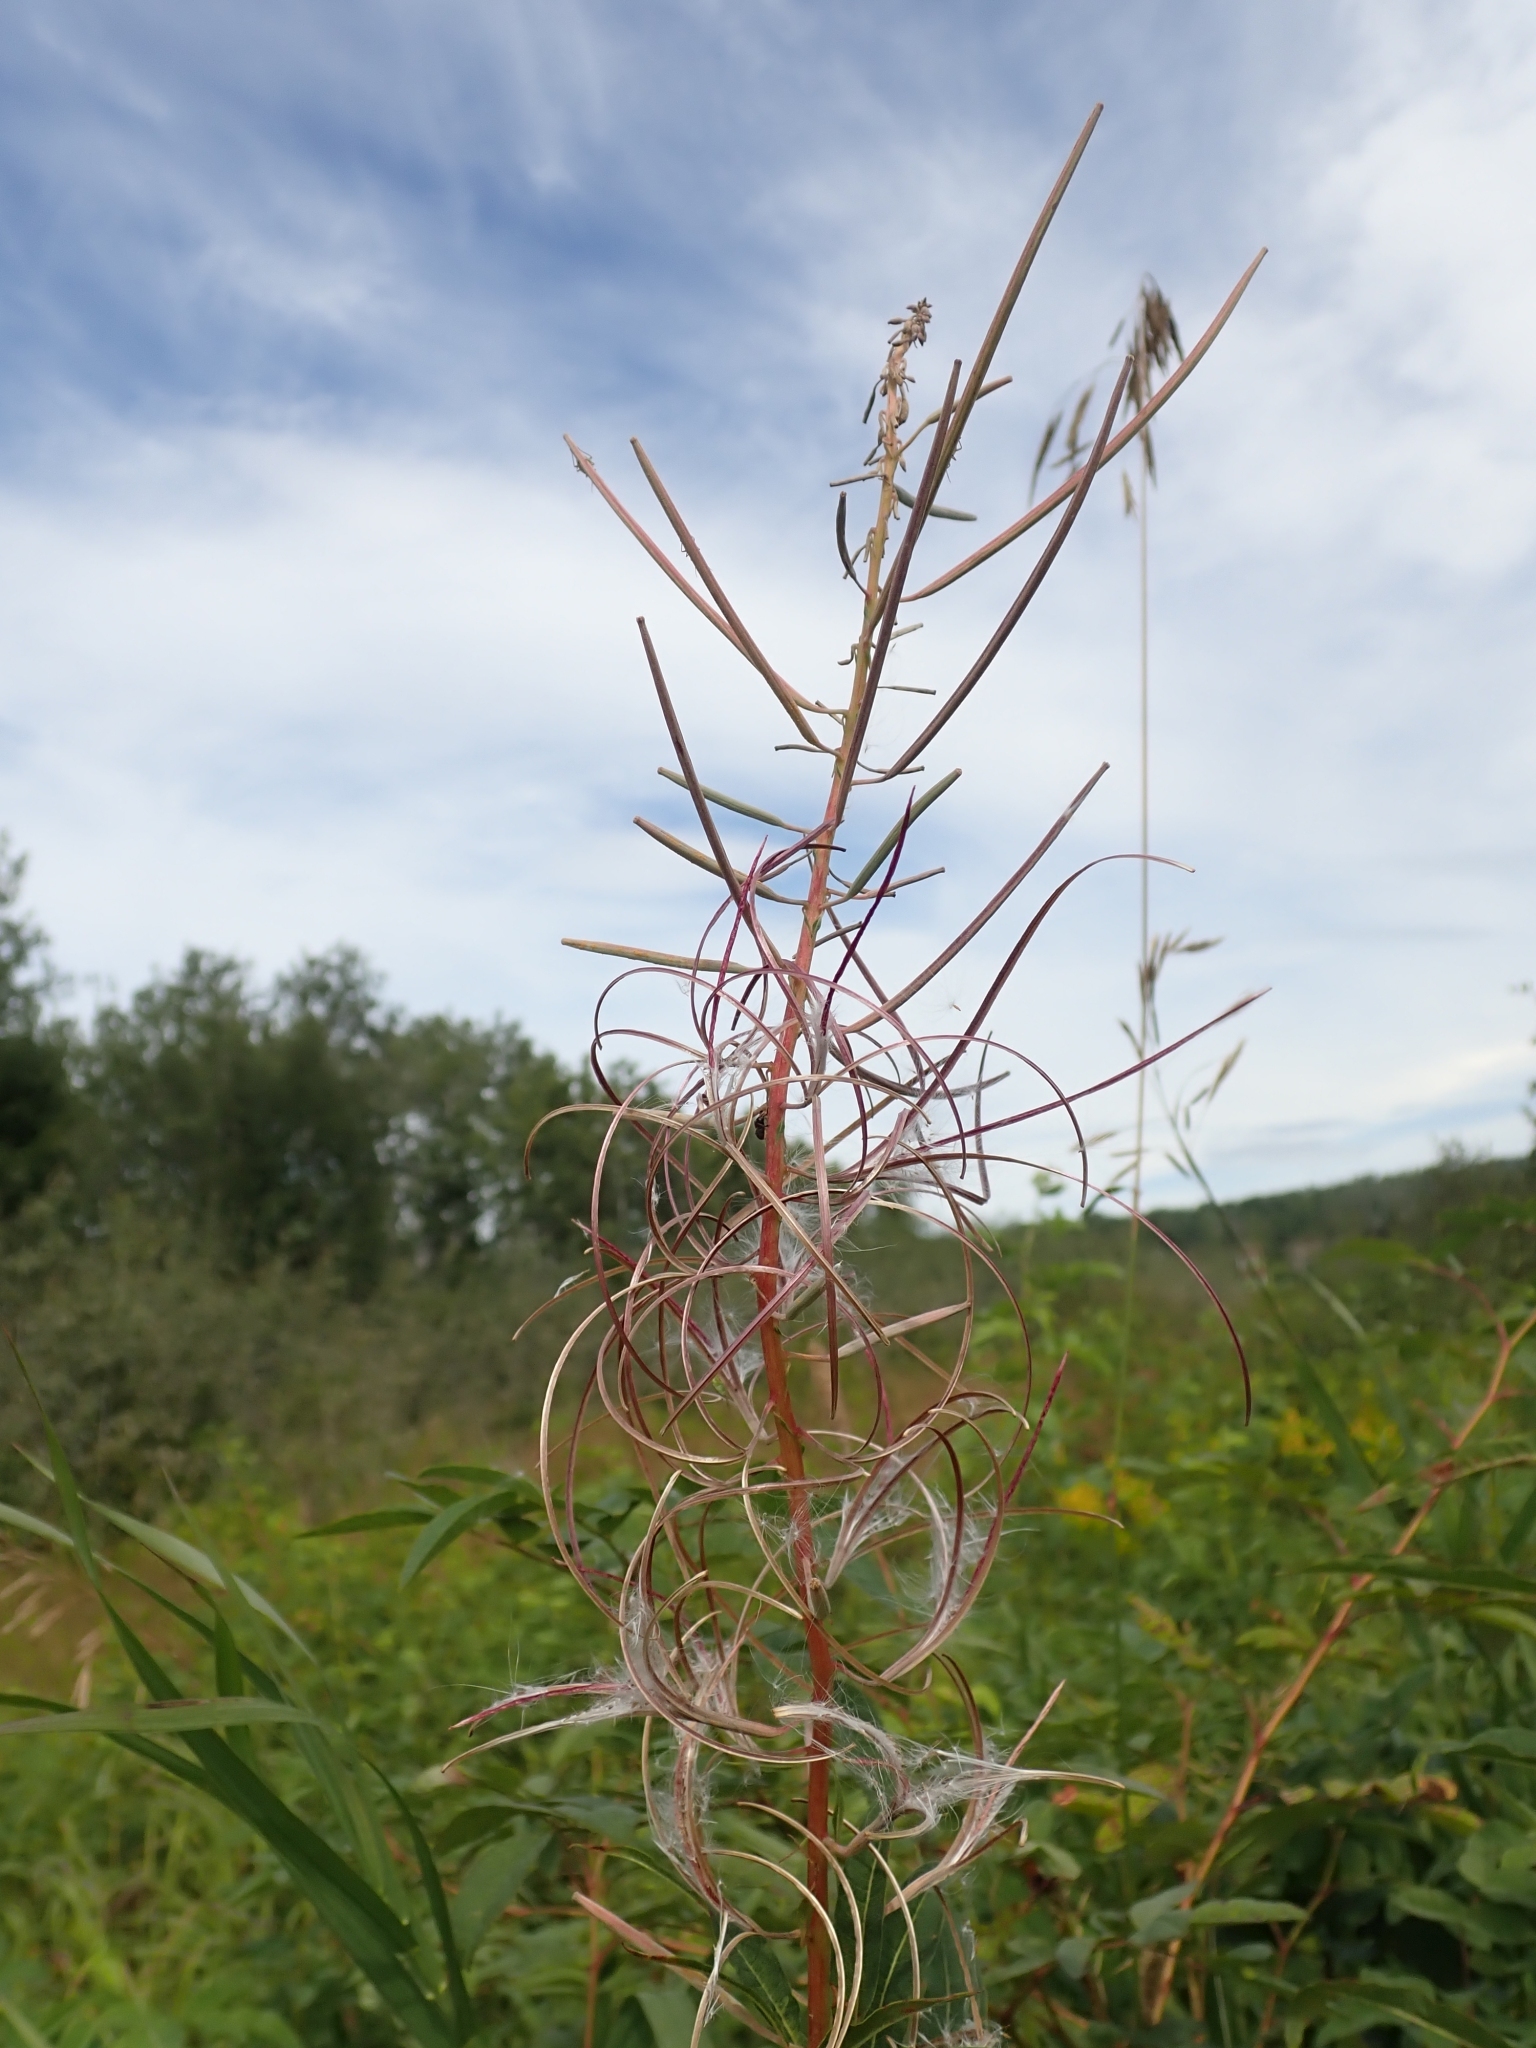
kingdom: Plantae
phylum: Tracheophyta
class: Magnoliopsida
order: Myrtales
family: Onagraceae
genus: Chamaenerion
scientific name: Chamaenerion angustifolium
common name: Fireweed
